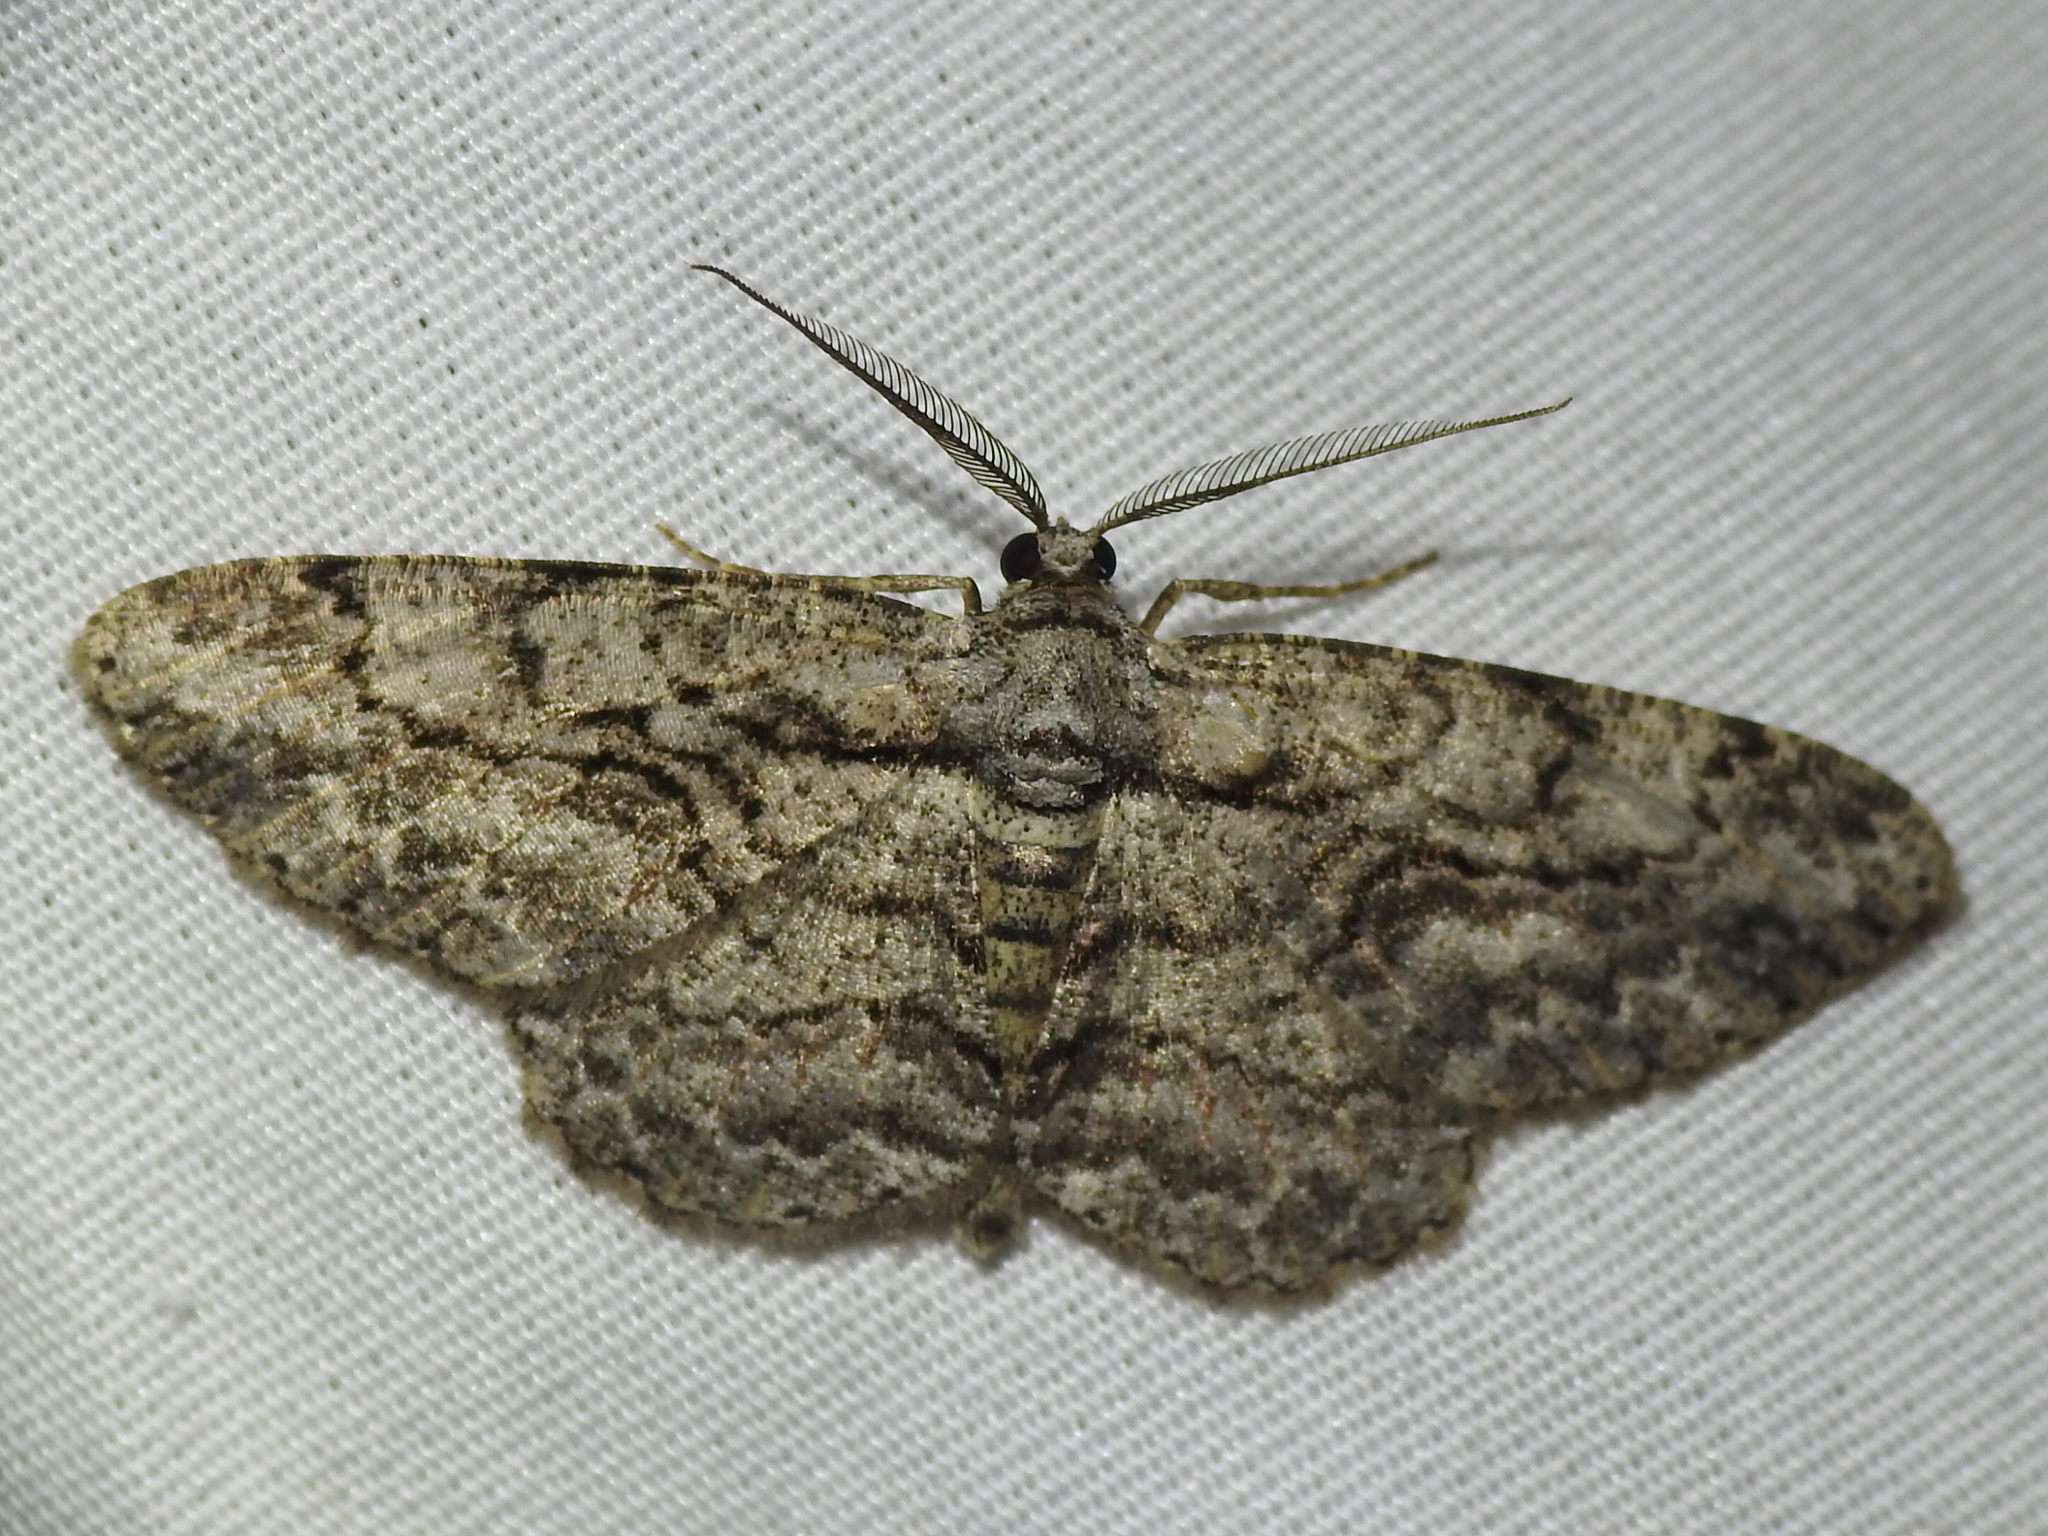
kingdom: Animalia
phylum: Arthropoda
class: Insecta
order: Lepidoptera
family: Geometridae
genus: Anavitrinella
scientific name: Anavitrinella pampinaria
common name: Common gray
